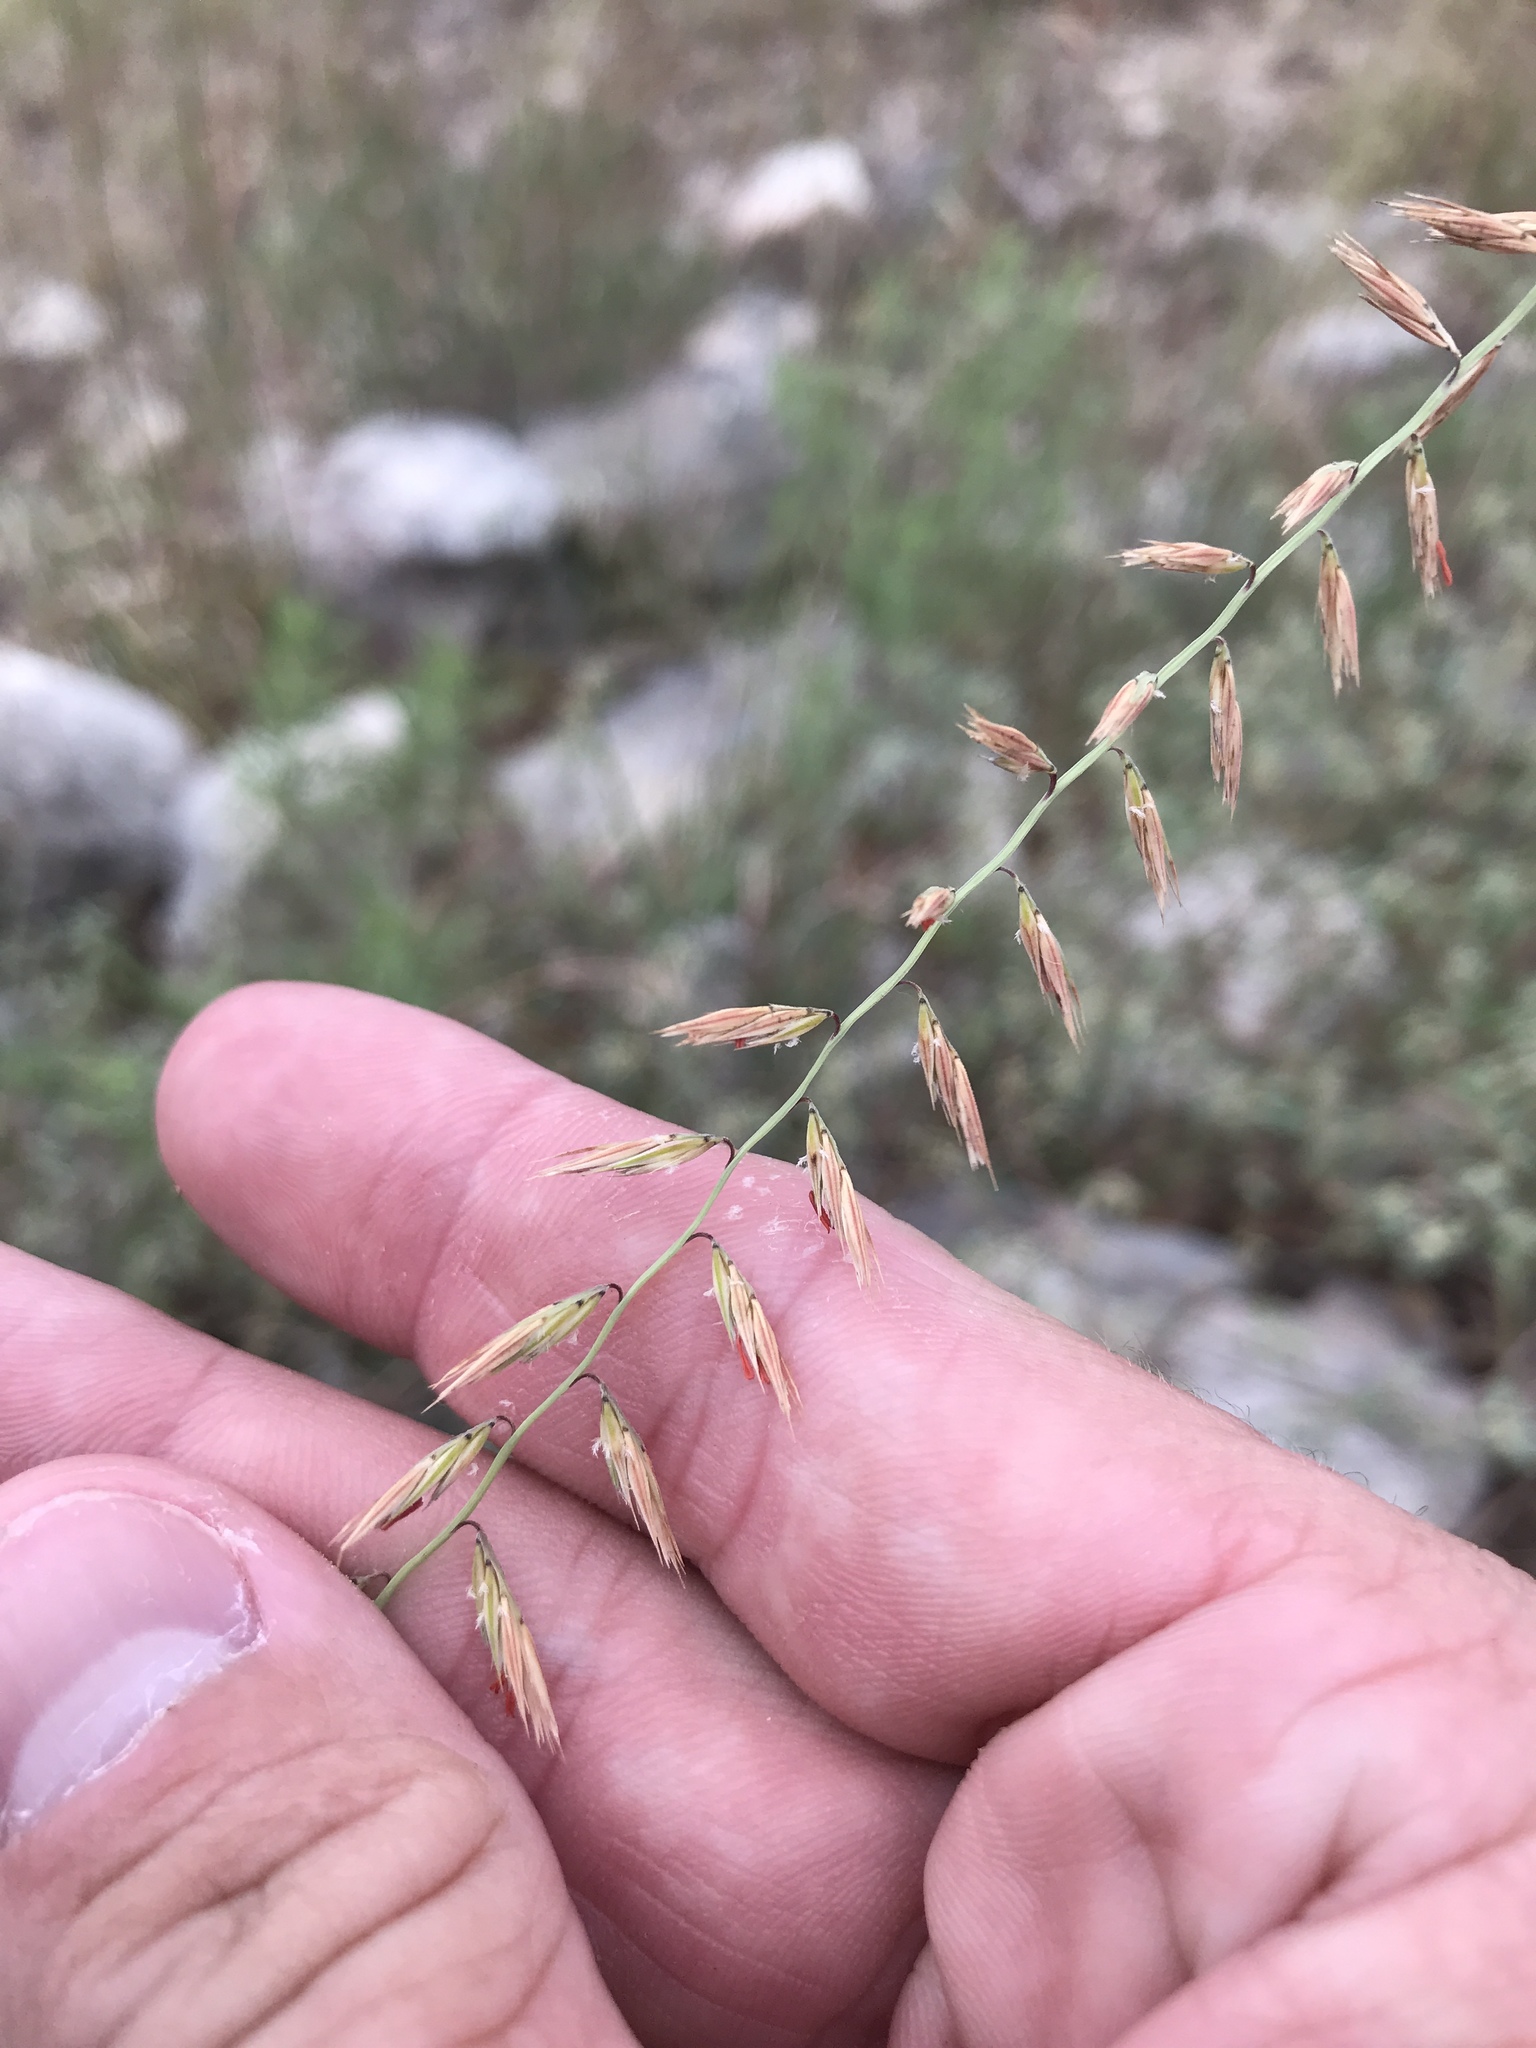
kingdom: Plantae
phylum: Tracheophyta
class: Liliopsida
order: Poales
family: Poaceae
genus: Bouteloua
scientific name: Bouteloua curtipendula
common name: Side-oats grama
